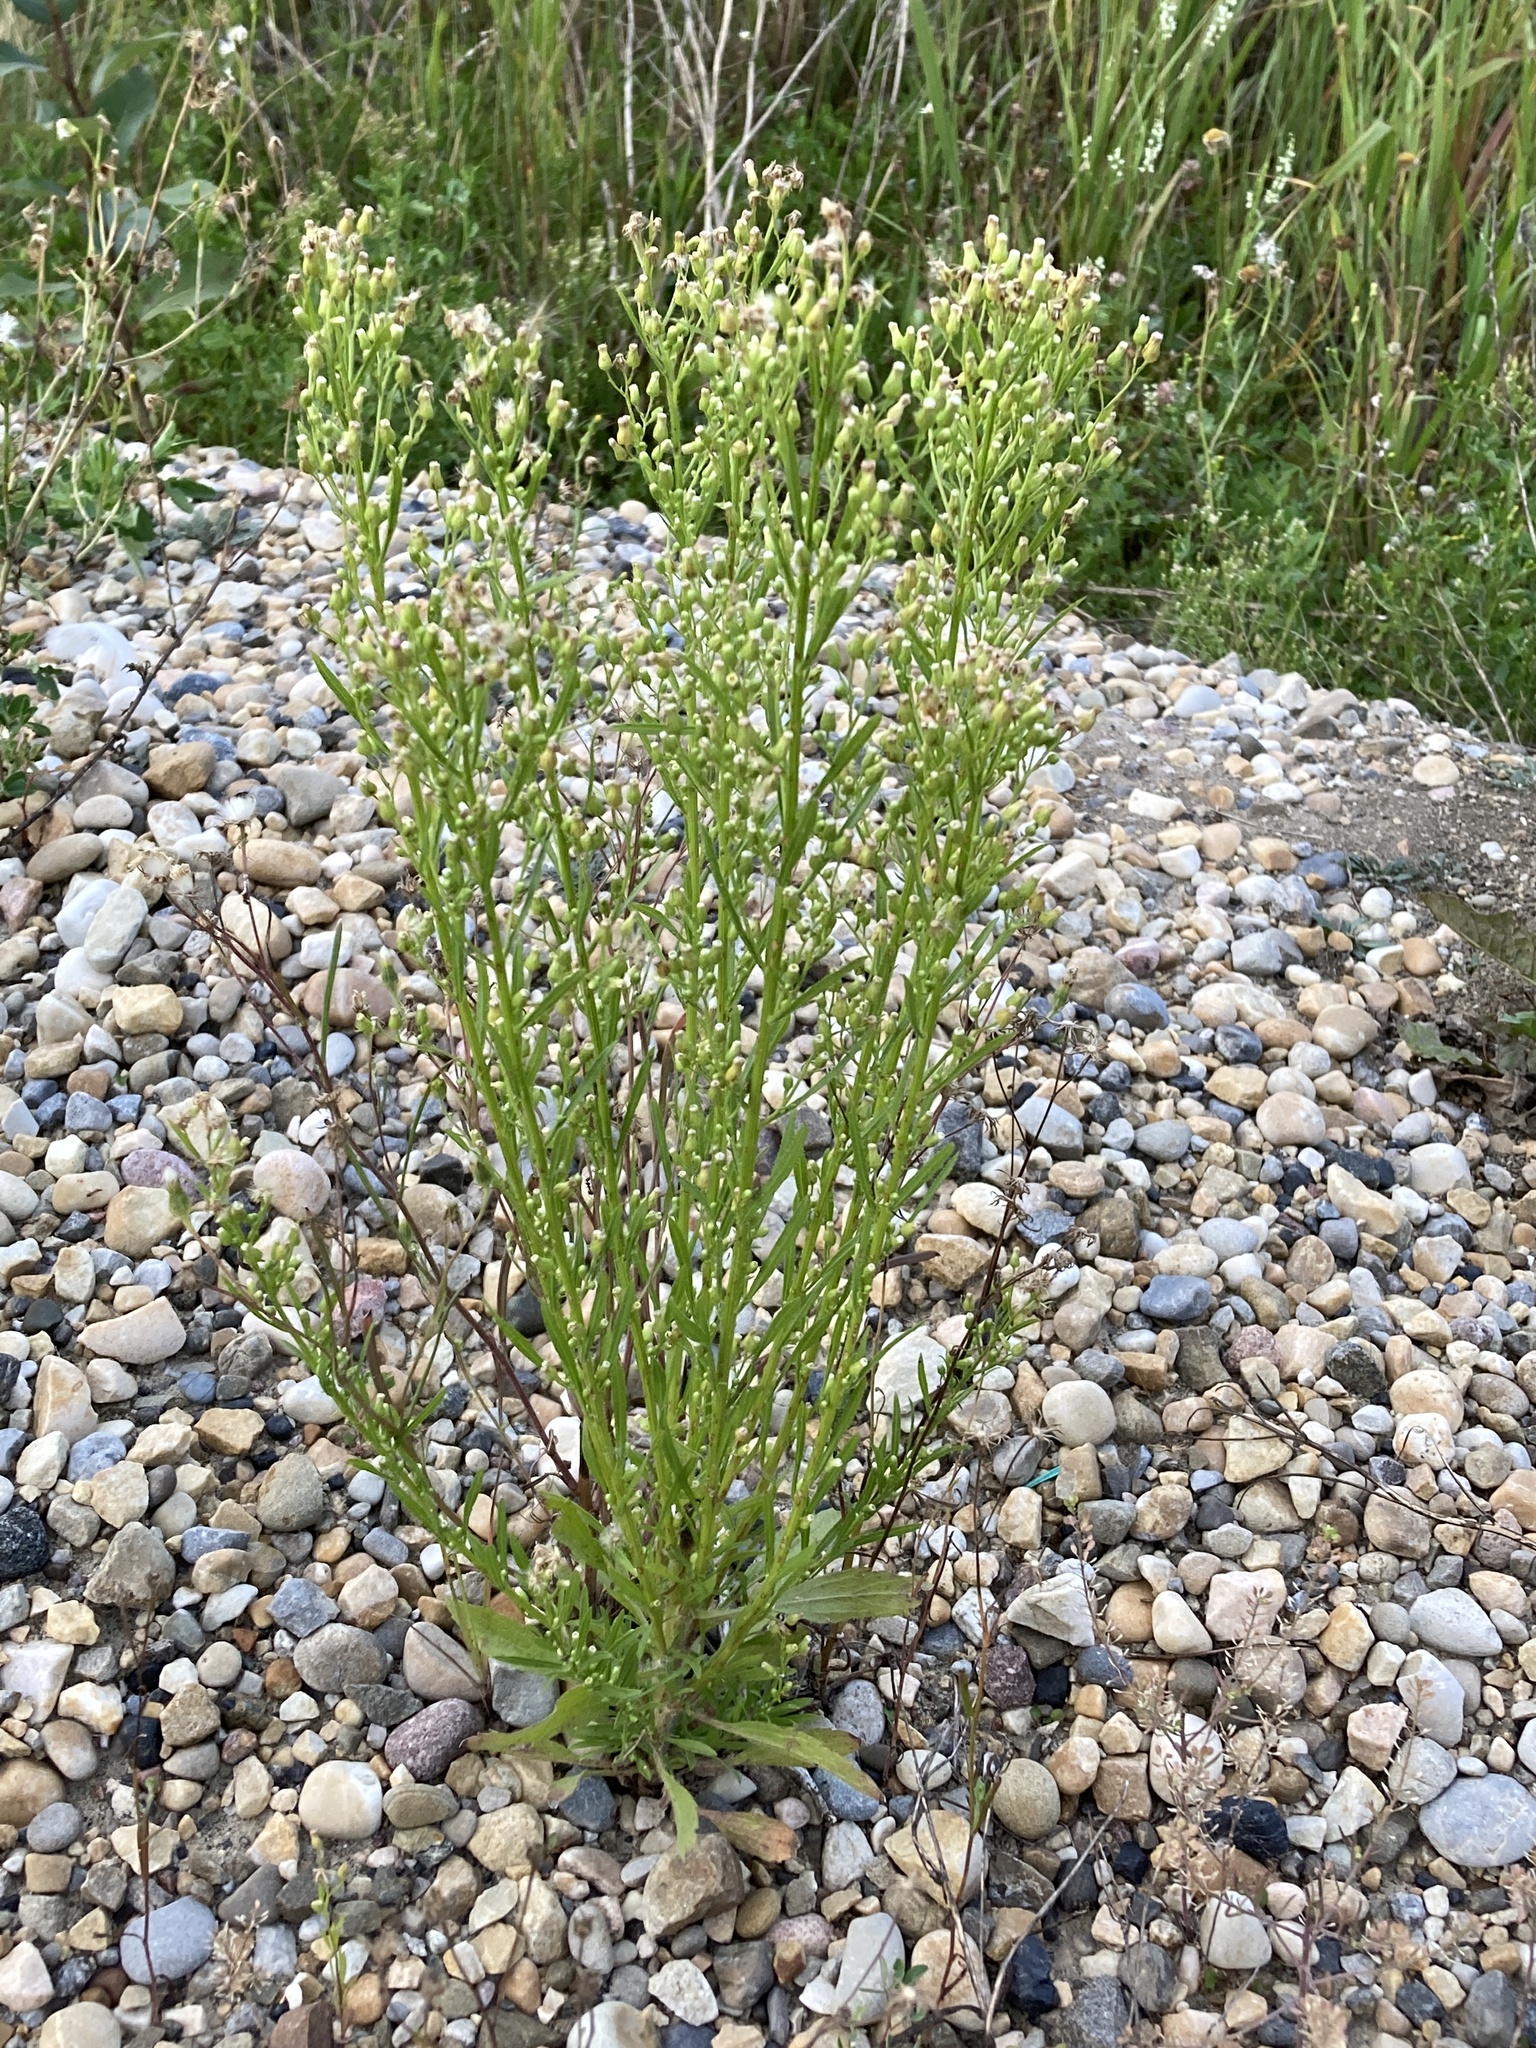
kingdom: Plantae
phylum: Tracheophyta
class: Magnoliopsida
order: Asterales
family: Asteraceae
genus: Erigeron
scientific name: Erigeron canadensis
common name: Canadian fleabane
